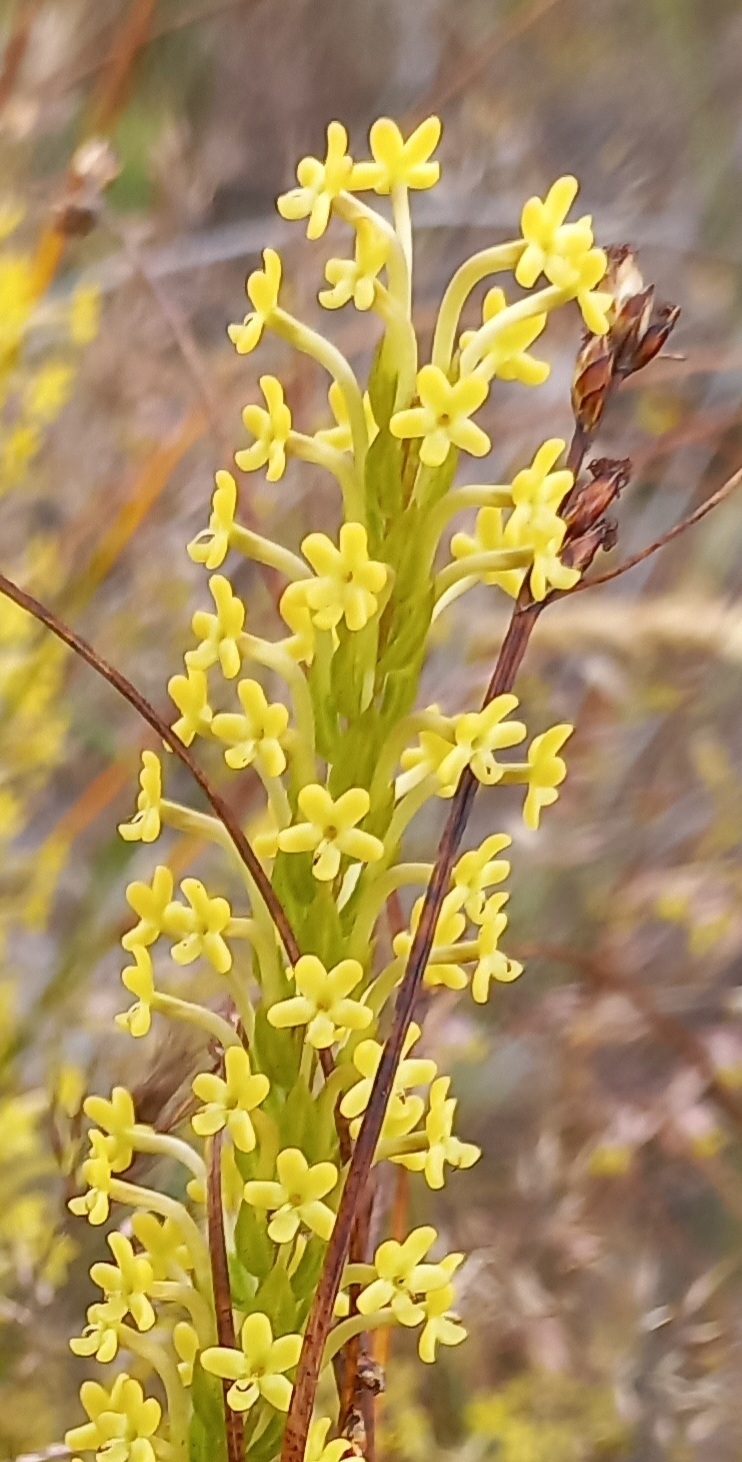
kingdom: Plantae
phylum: Tracheophyta
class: Magnoliopsida
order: Lamiales
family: Scrophulariaceae
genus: Microdon
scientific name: Microdon dubius
